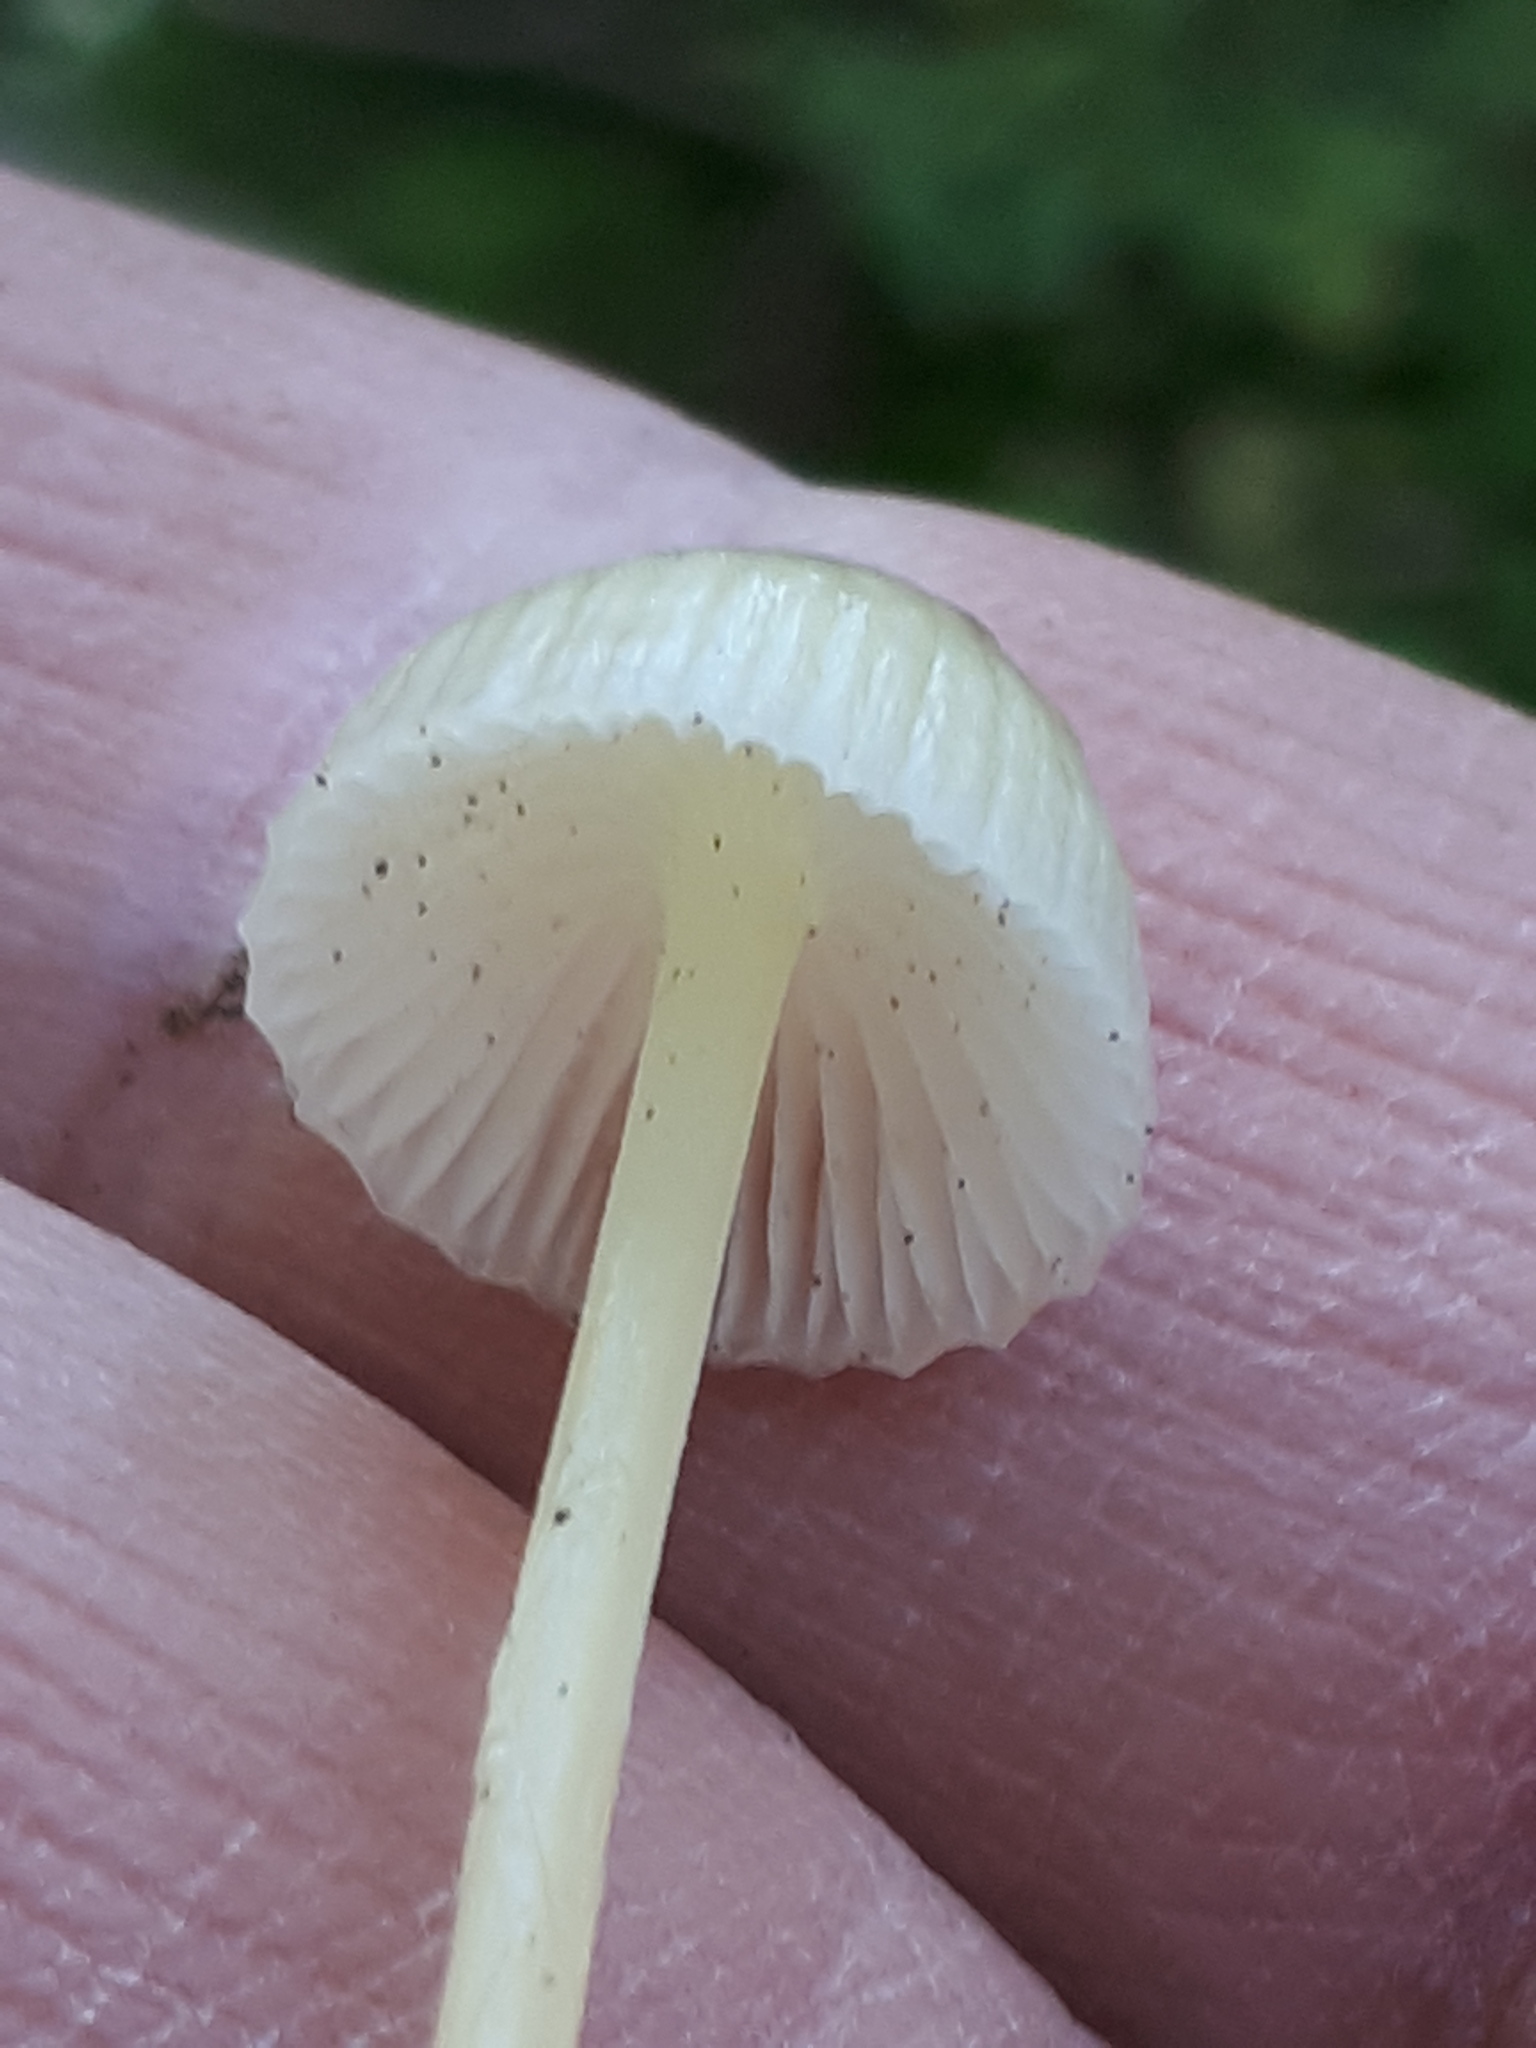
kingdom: Fungi
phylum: Basidiomycota
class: Agaricomycetes
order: Agaricales
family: Mycenaceae
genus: Mycena
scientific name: Mycena epipterygia
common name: Yellowleg bonnet
